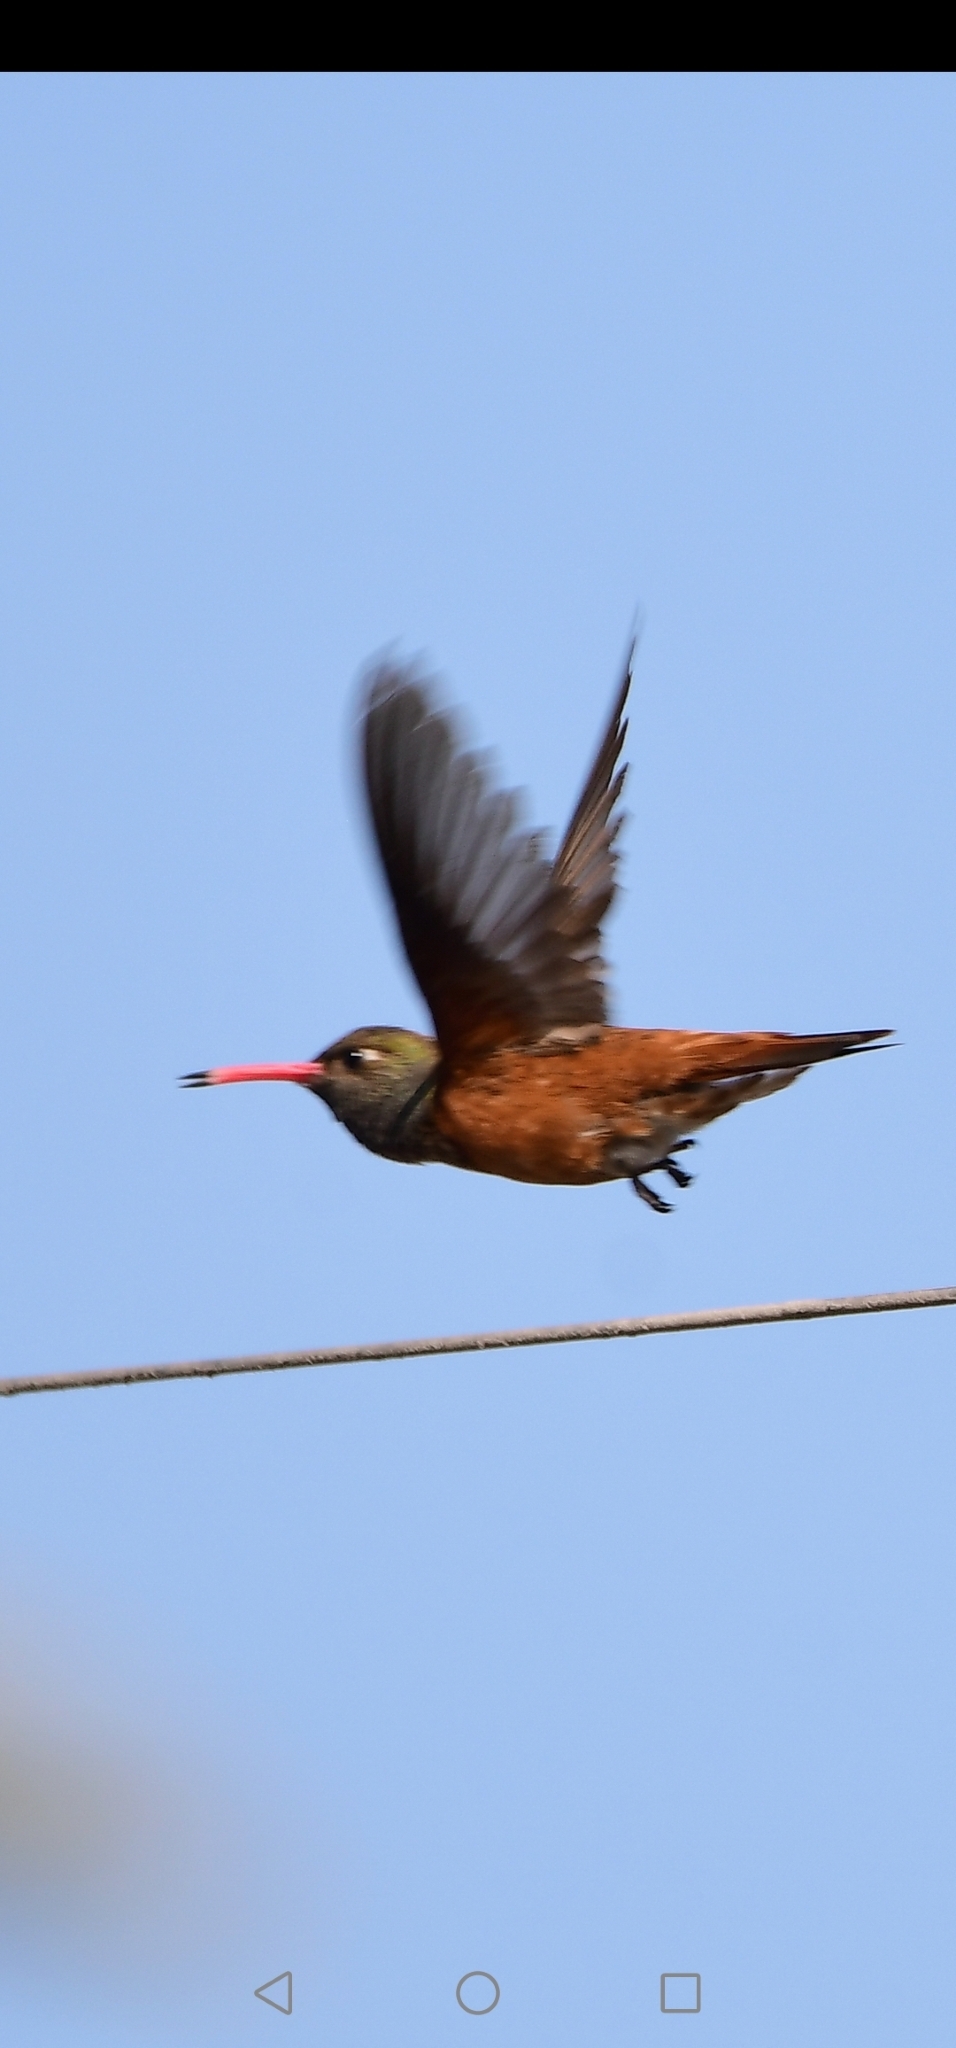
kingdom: Animalia
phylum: Chordata
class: Aves
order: Apodiformes
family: Trochilidae
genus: Amazilis
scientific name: Amazilis amazilia
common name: Amazilia hummingbird
